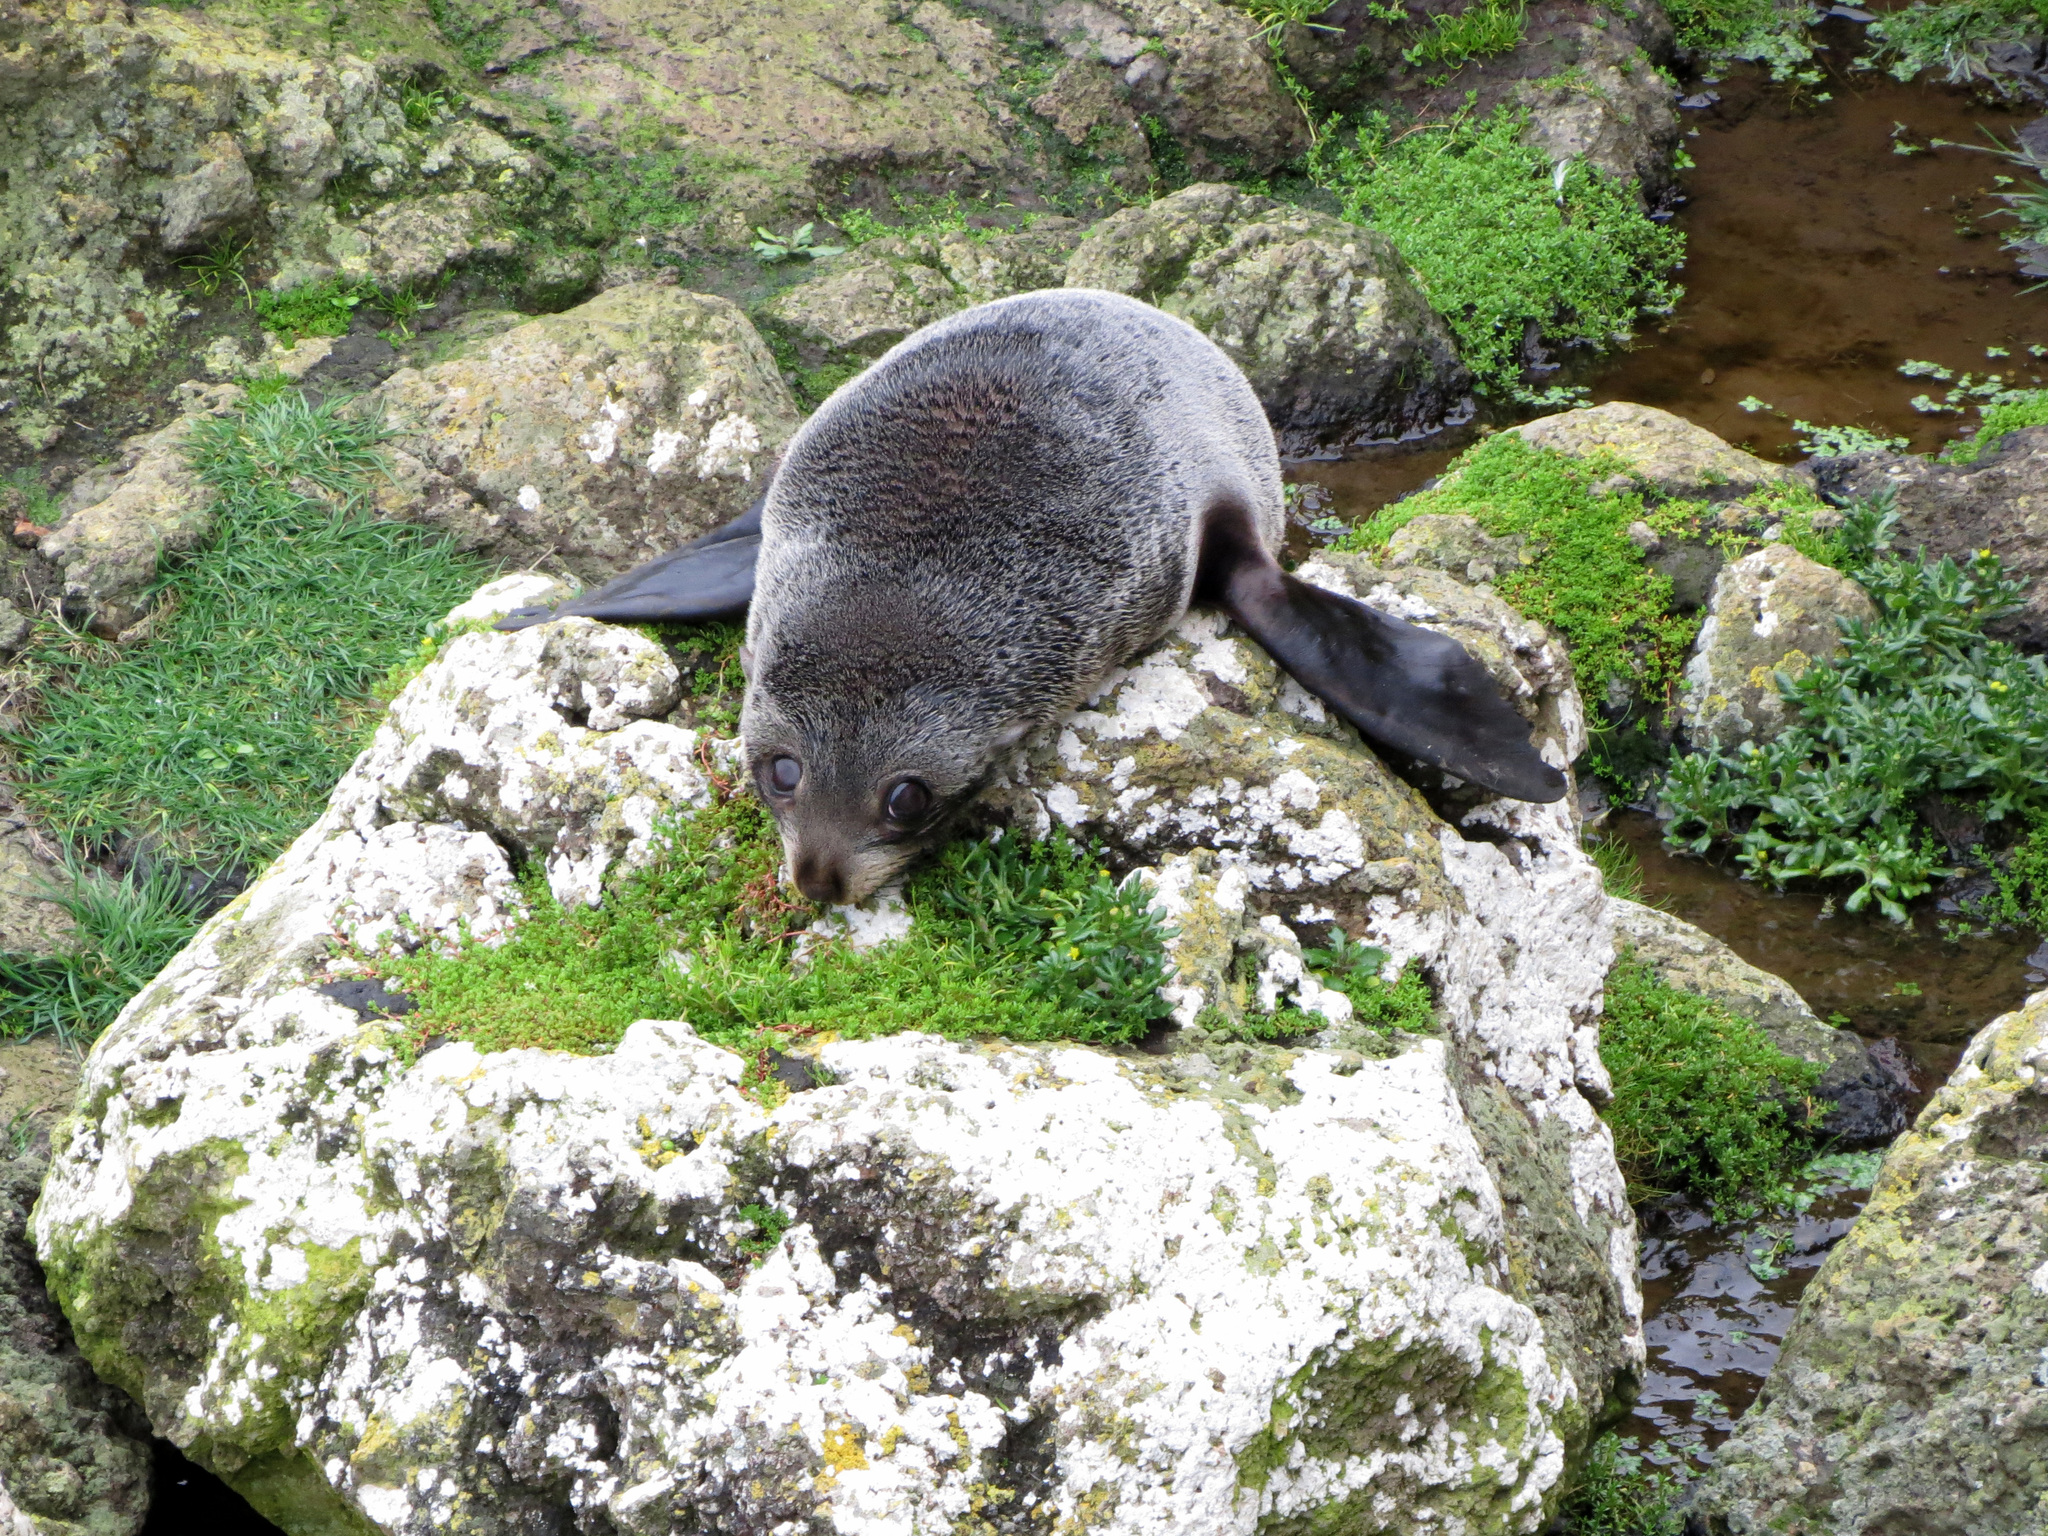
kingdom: Animalia
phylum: Chordata
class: Mammalia
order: Carnivora
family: Otariidae
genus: Arctocephalus
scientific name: Arctocephalus forsteri
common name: New zealand fur seal
